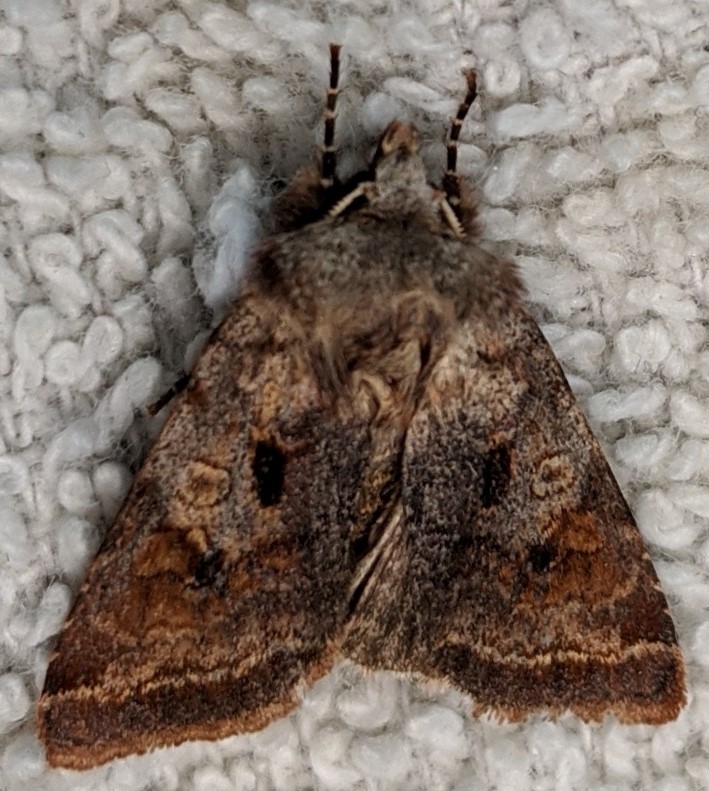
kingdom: Animalia
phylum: Arthropoda
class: Insecta
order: Lepidoptera
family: Noctuidae
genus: Cerastis
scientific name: Cerastis salicarum
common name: Willow dart
